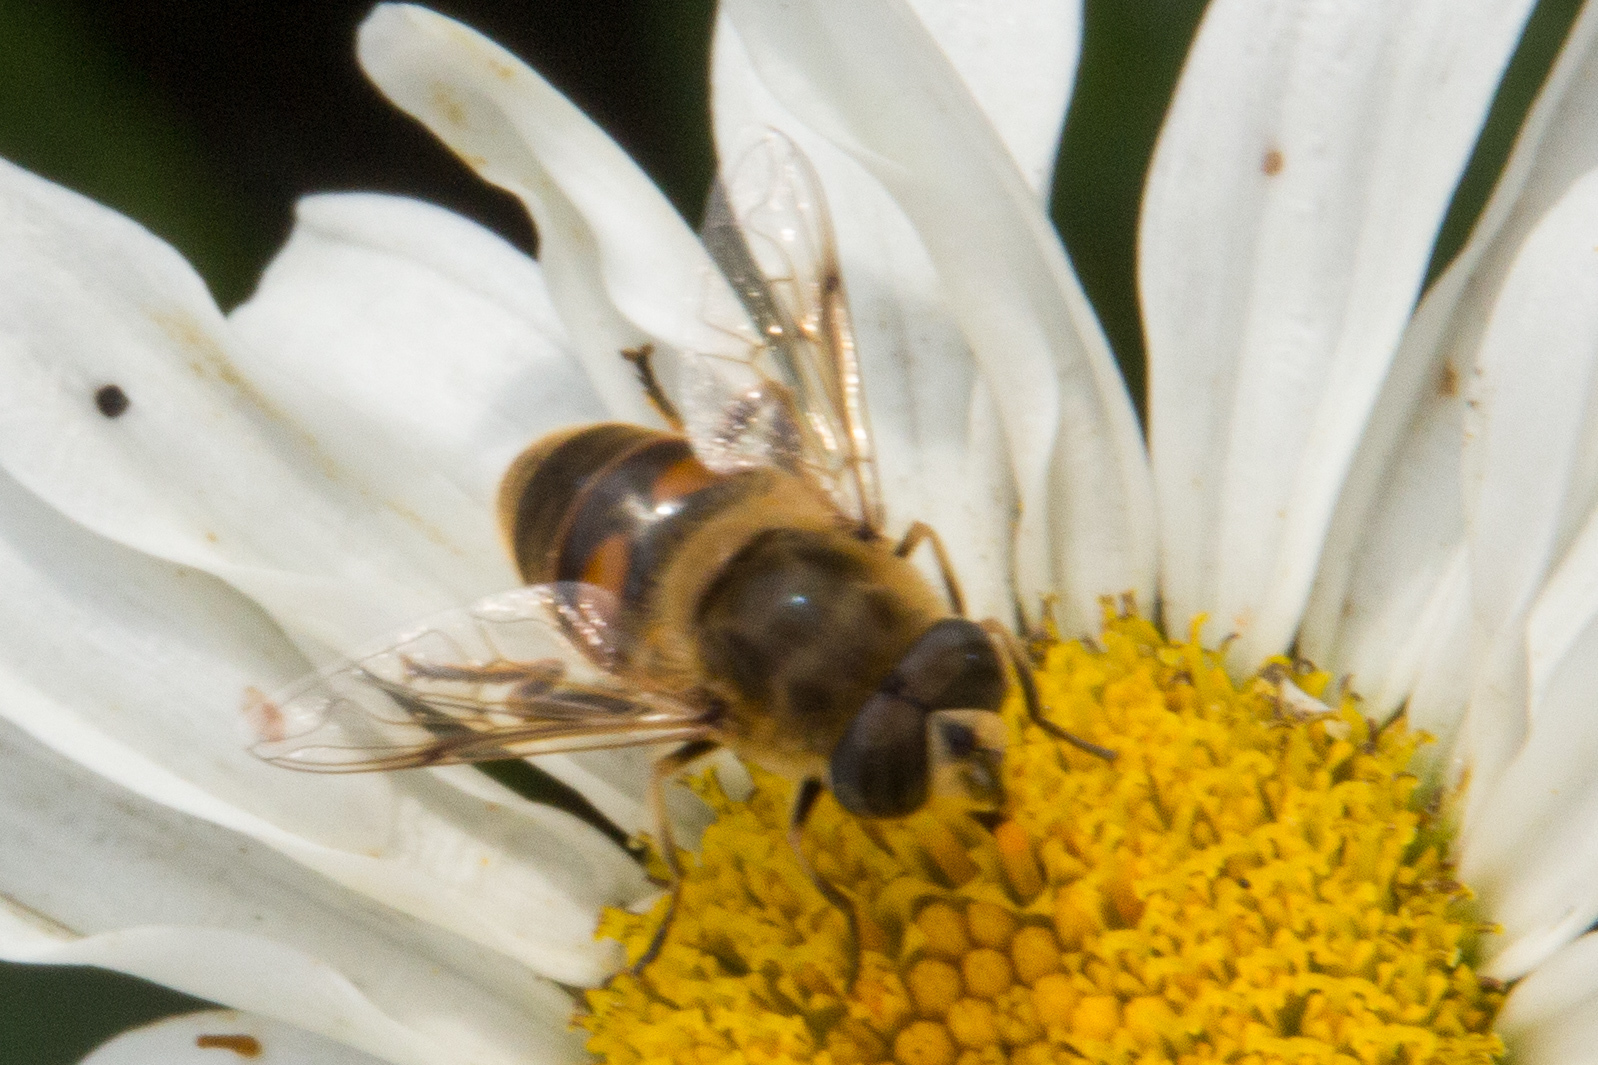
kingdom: Animalia
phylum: Arthropoda
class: Insecta
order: Diptera
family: Syrphidae
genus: Eristalis
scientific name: Eristalis tenax
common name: Drone fly
